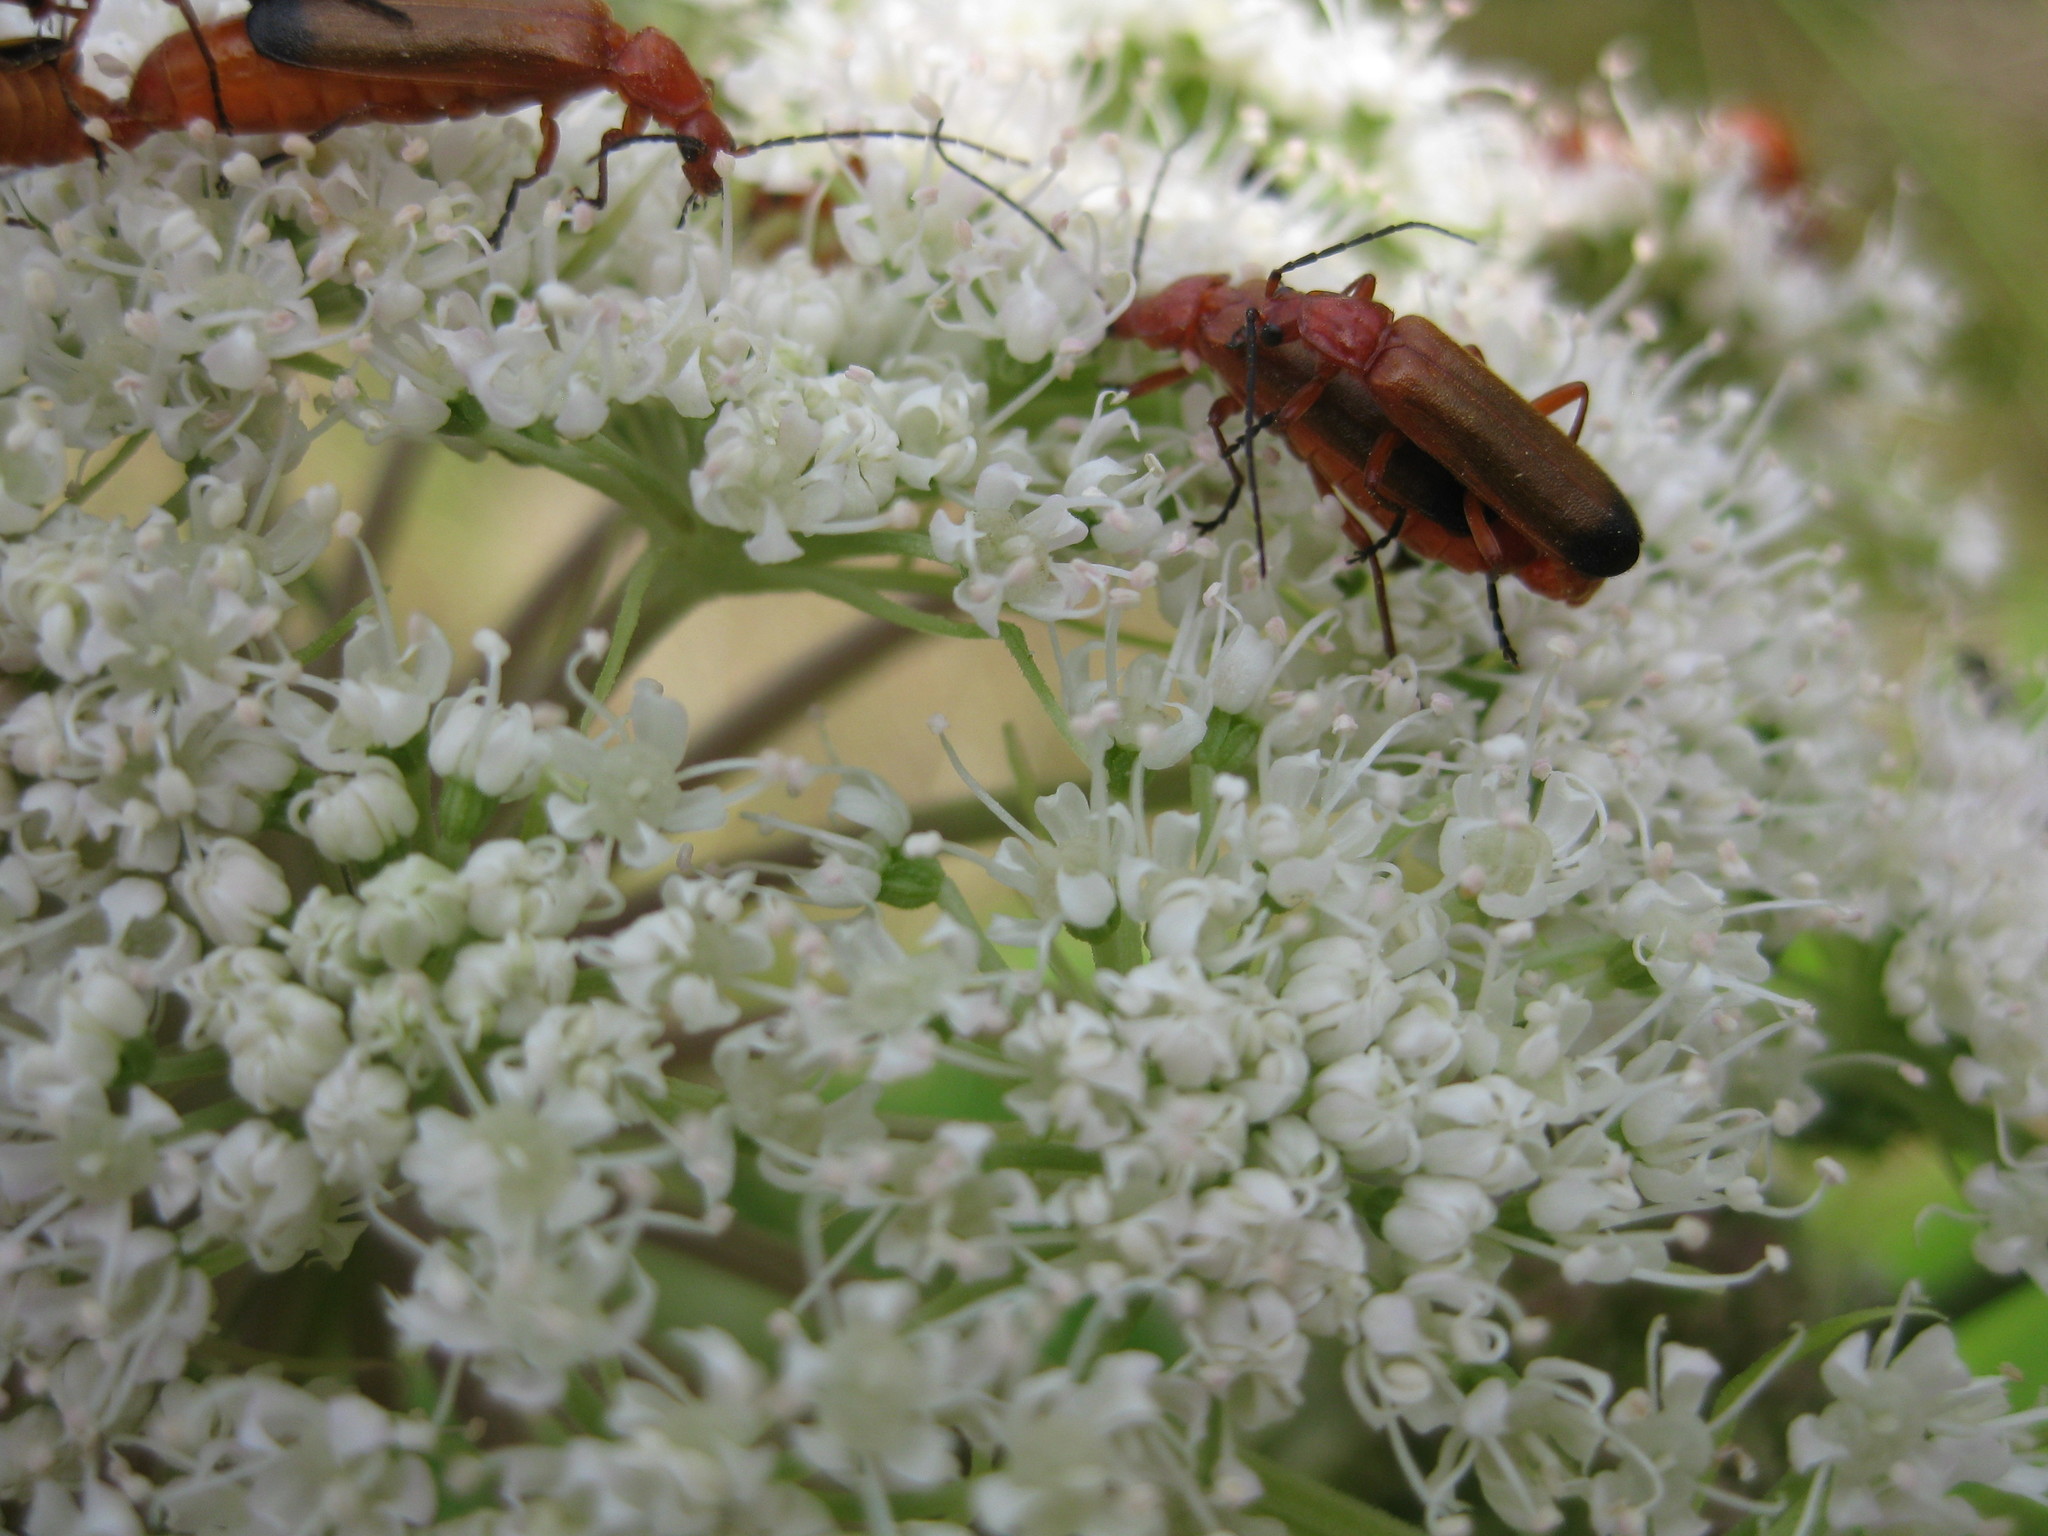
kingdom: Animalia
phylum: Arthropoda
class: Insecta
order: Coleoptera
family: Cantharidae
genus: Rhagonycha
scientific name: Rhagonycha fulva
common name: Common red soldier beetle
